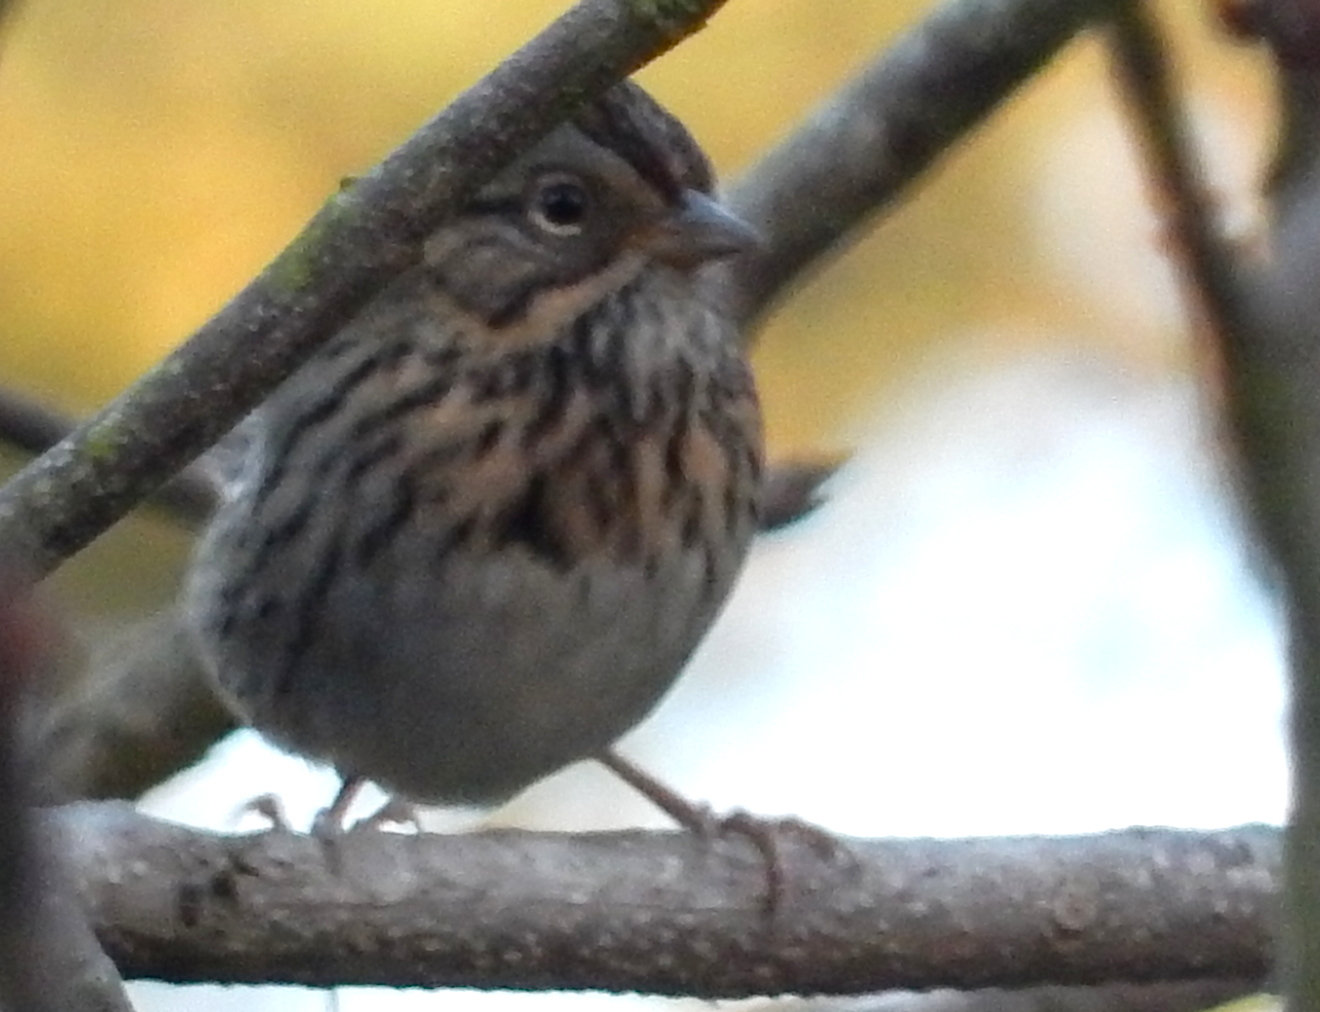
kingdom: Animalia
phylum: Chordata
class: Aves
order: Passeriformes
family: Passerellidae
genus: Melospiza
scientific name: Melospiza lincolnii
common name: Lincoln's sparrow
